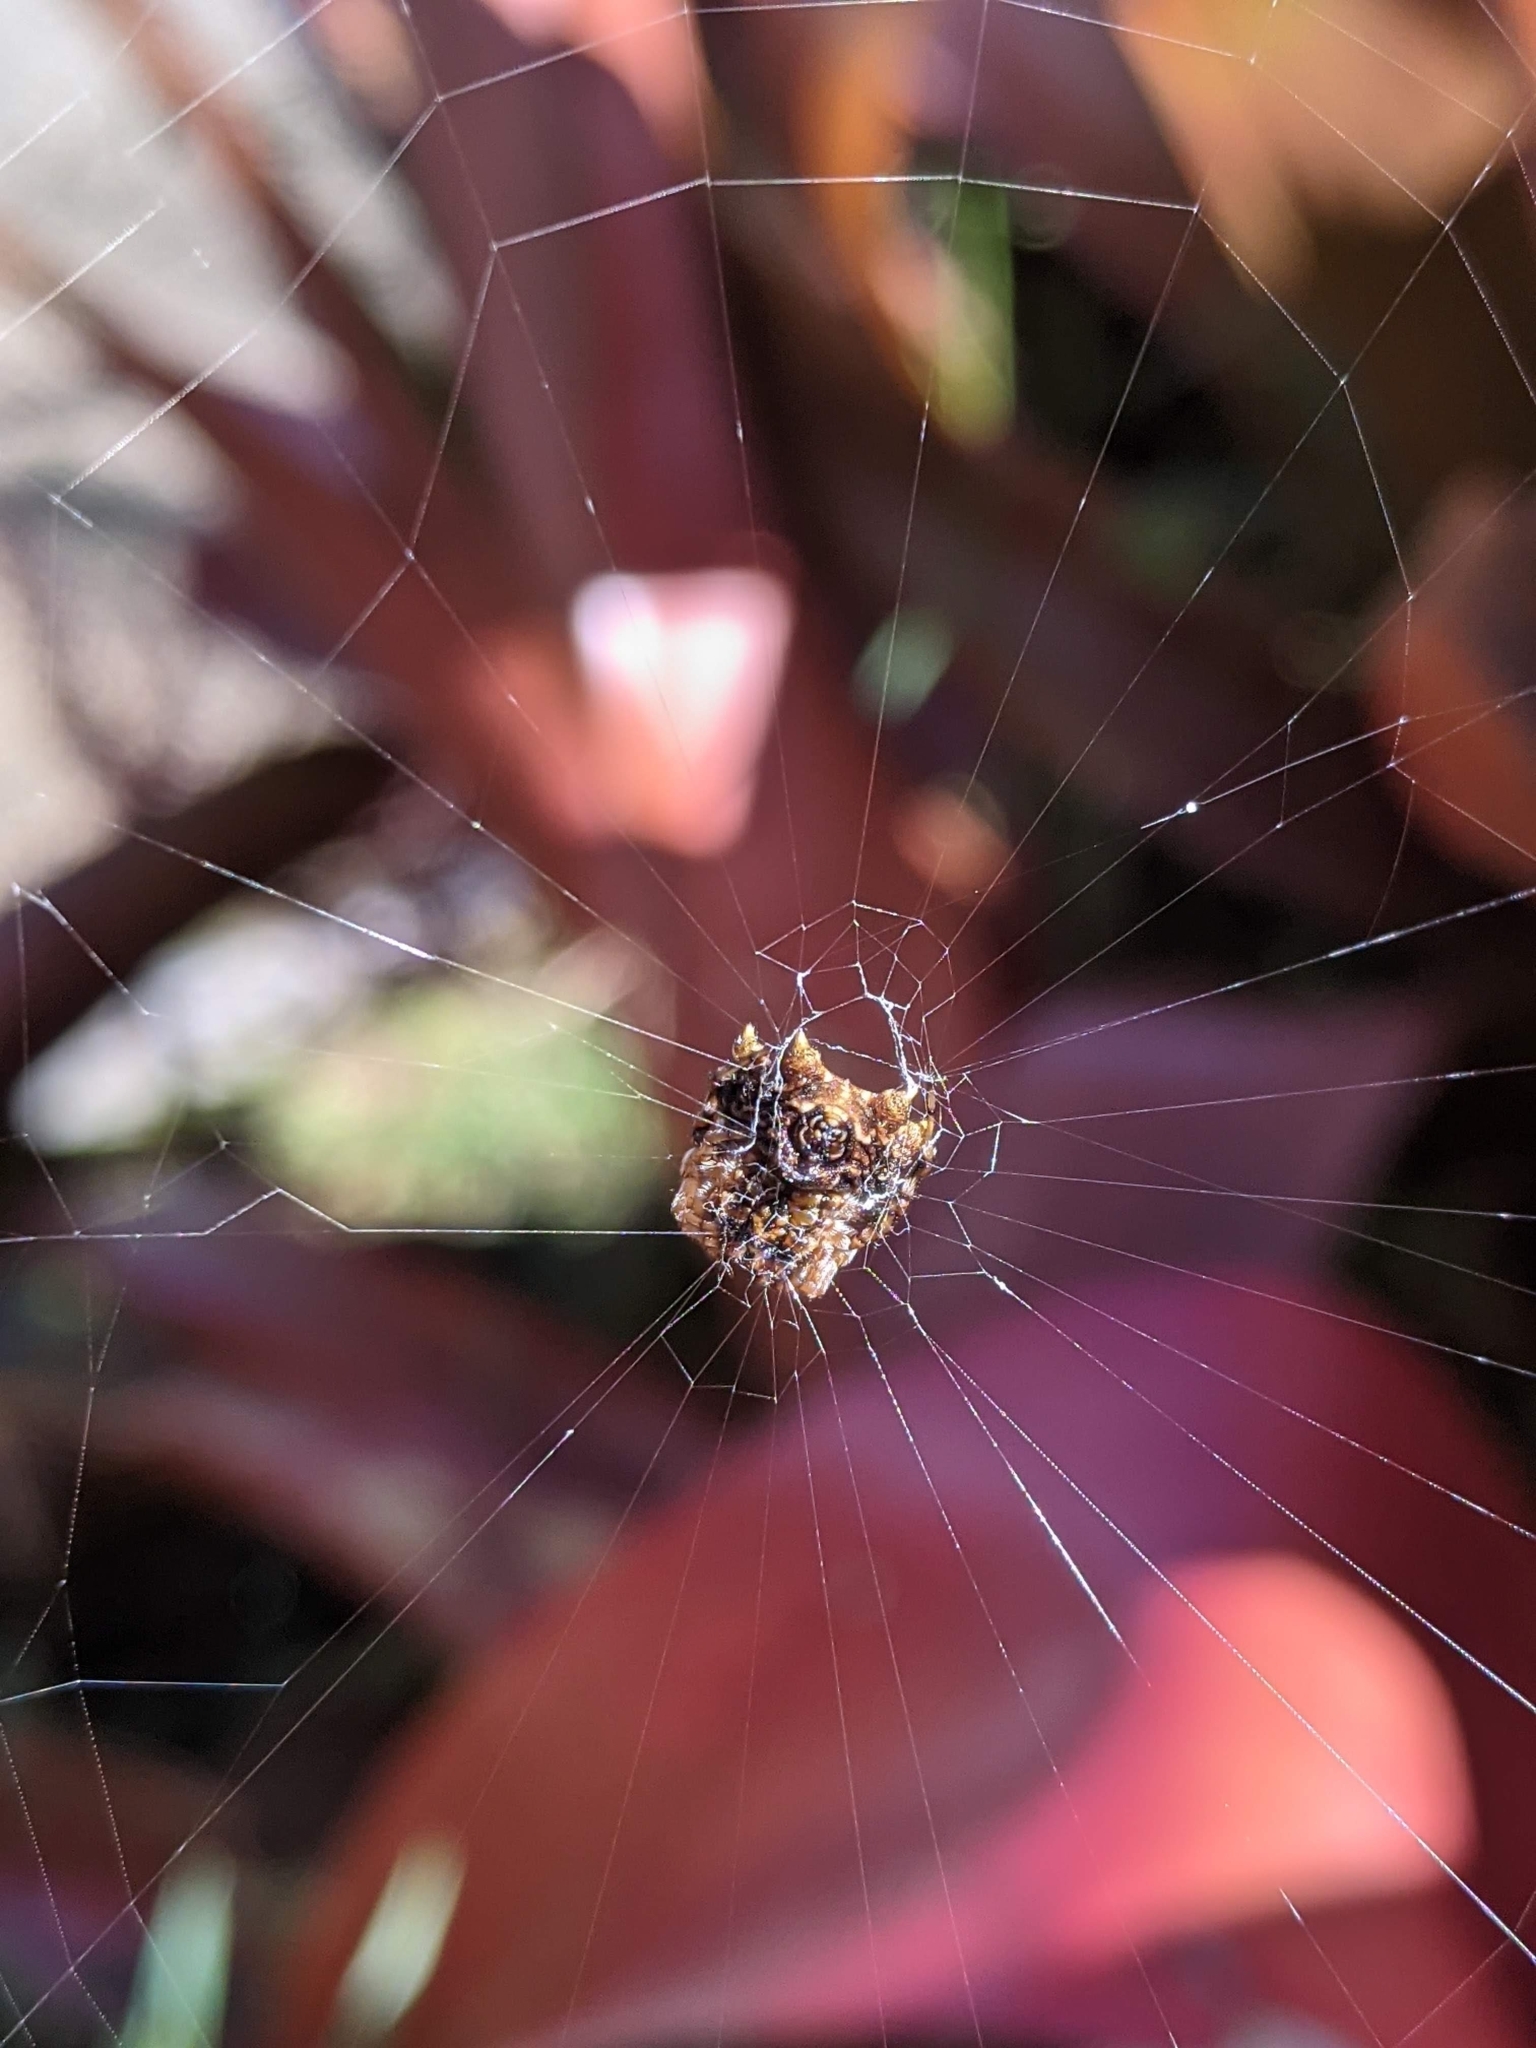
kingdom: Animalia
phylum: Arthropoda
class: Arachnida
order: Araneae
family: Araneidae
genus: Thelacantha
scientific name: Thelacantha brevispina
